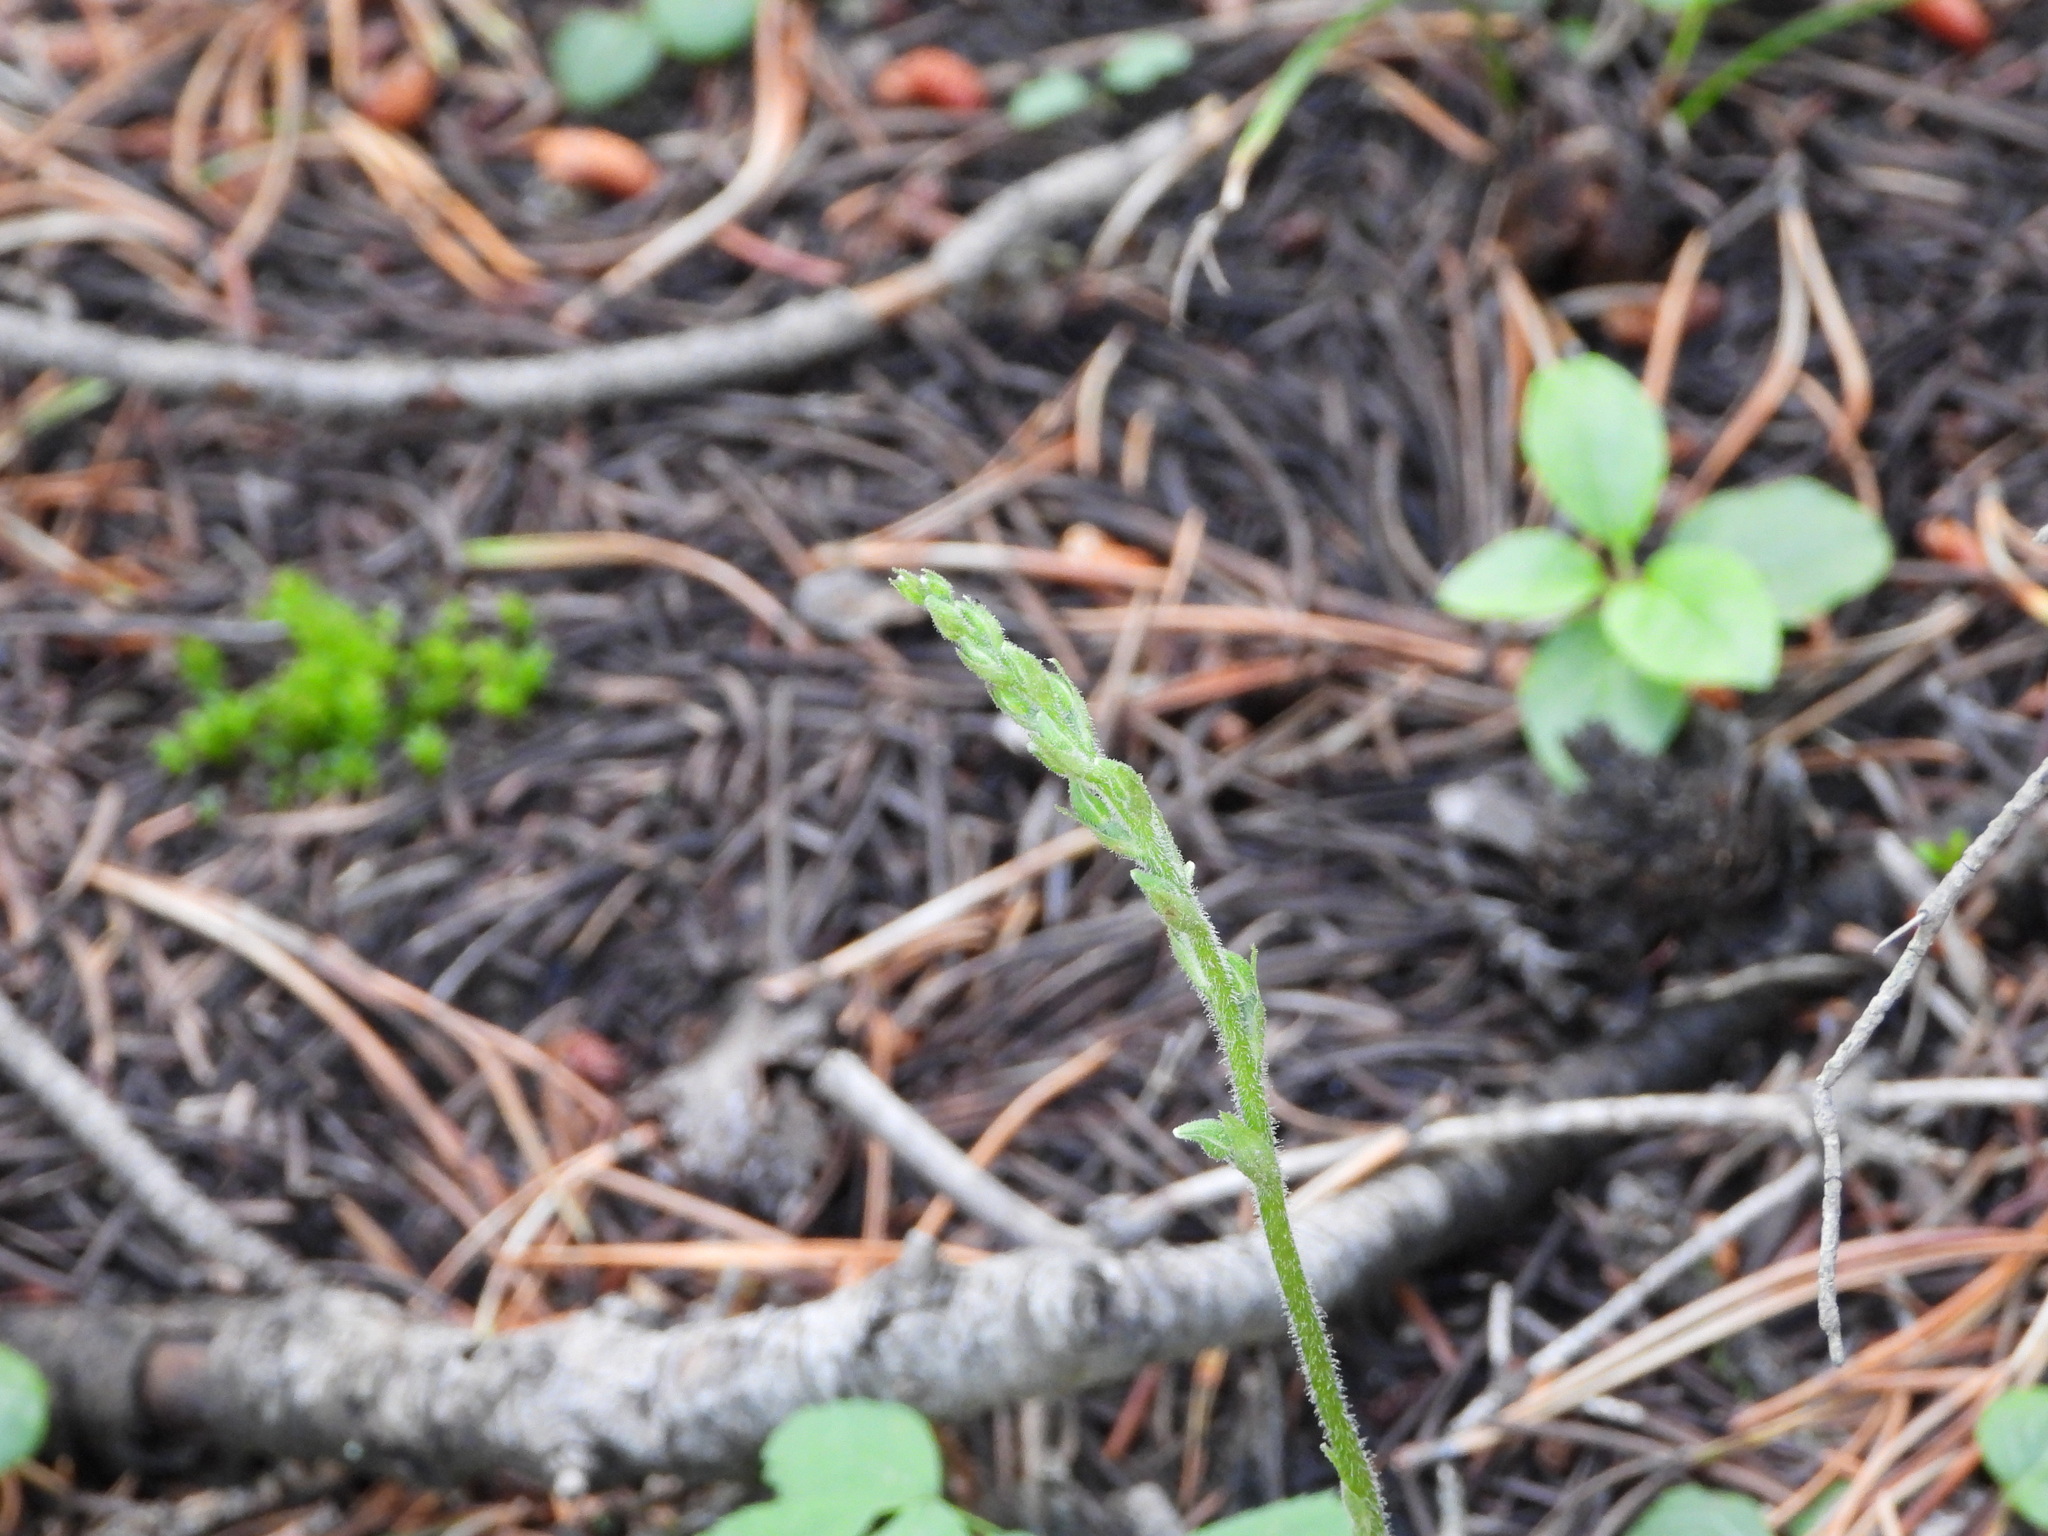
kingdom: Plantae
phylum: Tracheophyta
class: Liliopsida
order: Asparagales
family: Orchidaceae
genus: Goodyera
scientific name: Goodyera oblongifolia
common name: Giant rattlesnake-plantain
